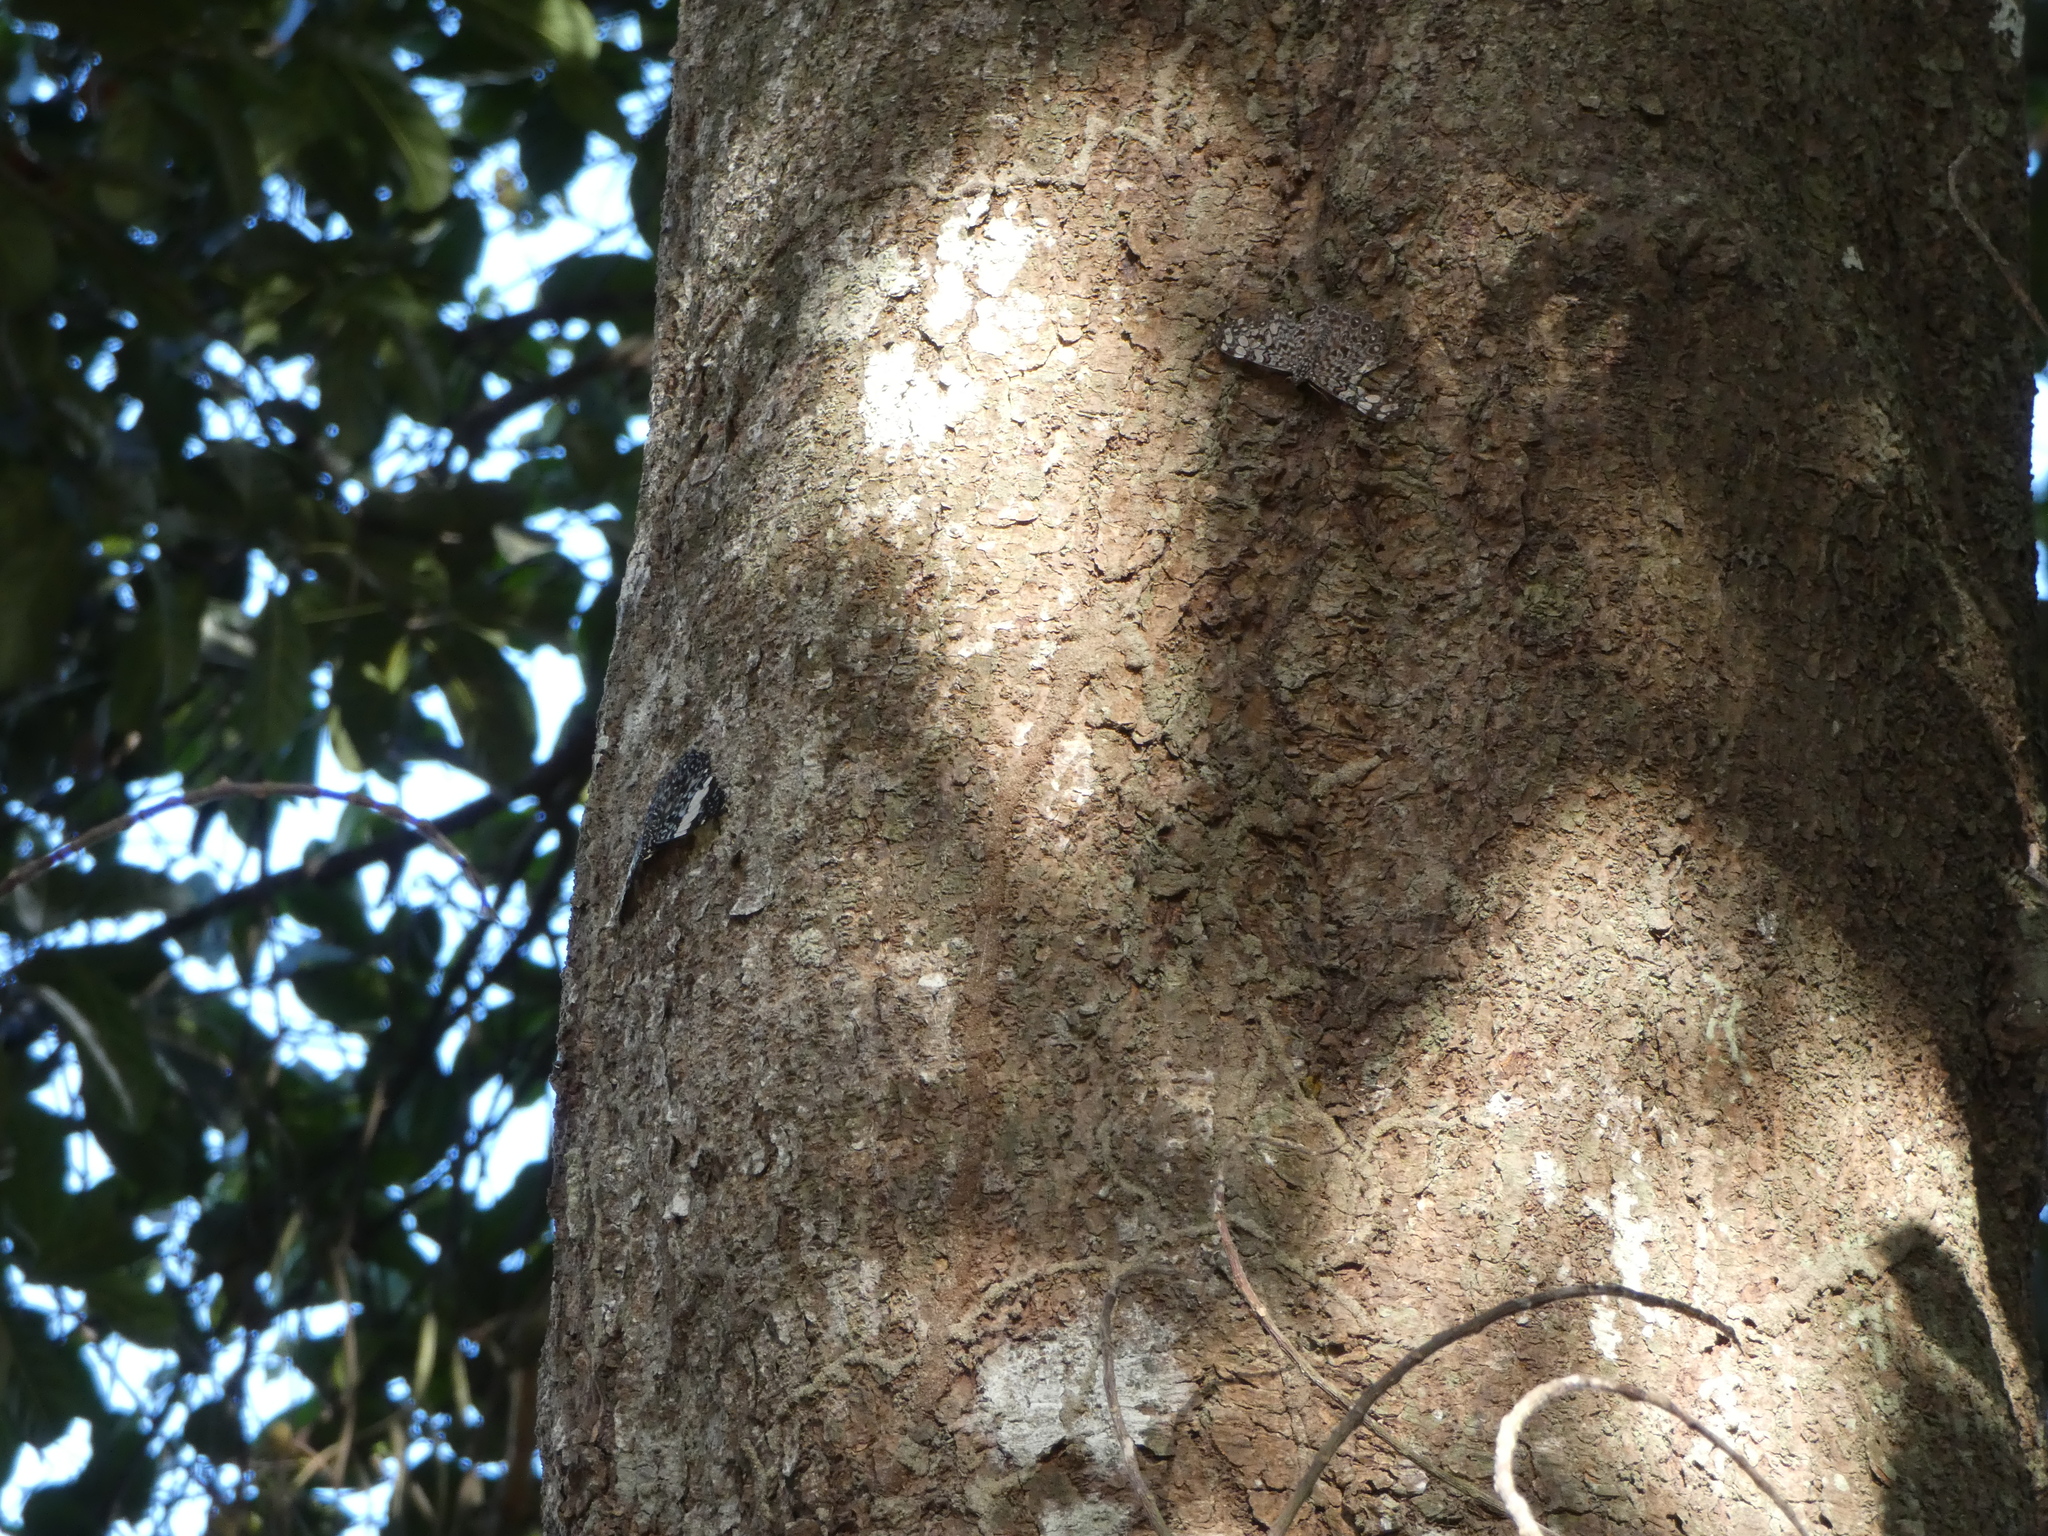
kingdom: Animalia
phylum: Arthropoda
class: Insecta
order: Lepidoptera
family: Nymphalidae
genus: Hamadryas
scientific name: Hamadryas feronia
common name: Variable cracker
